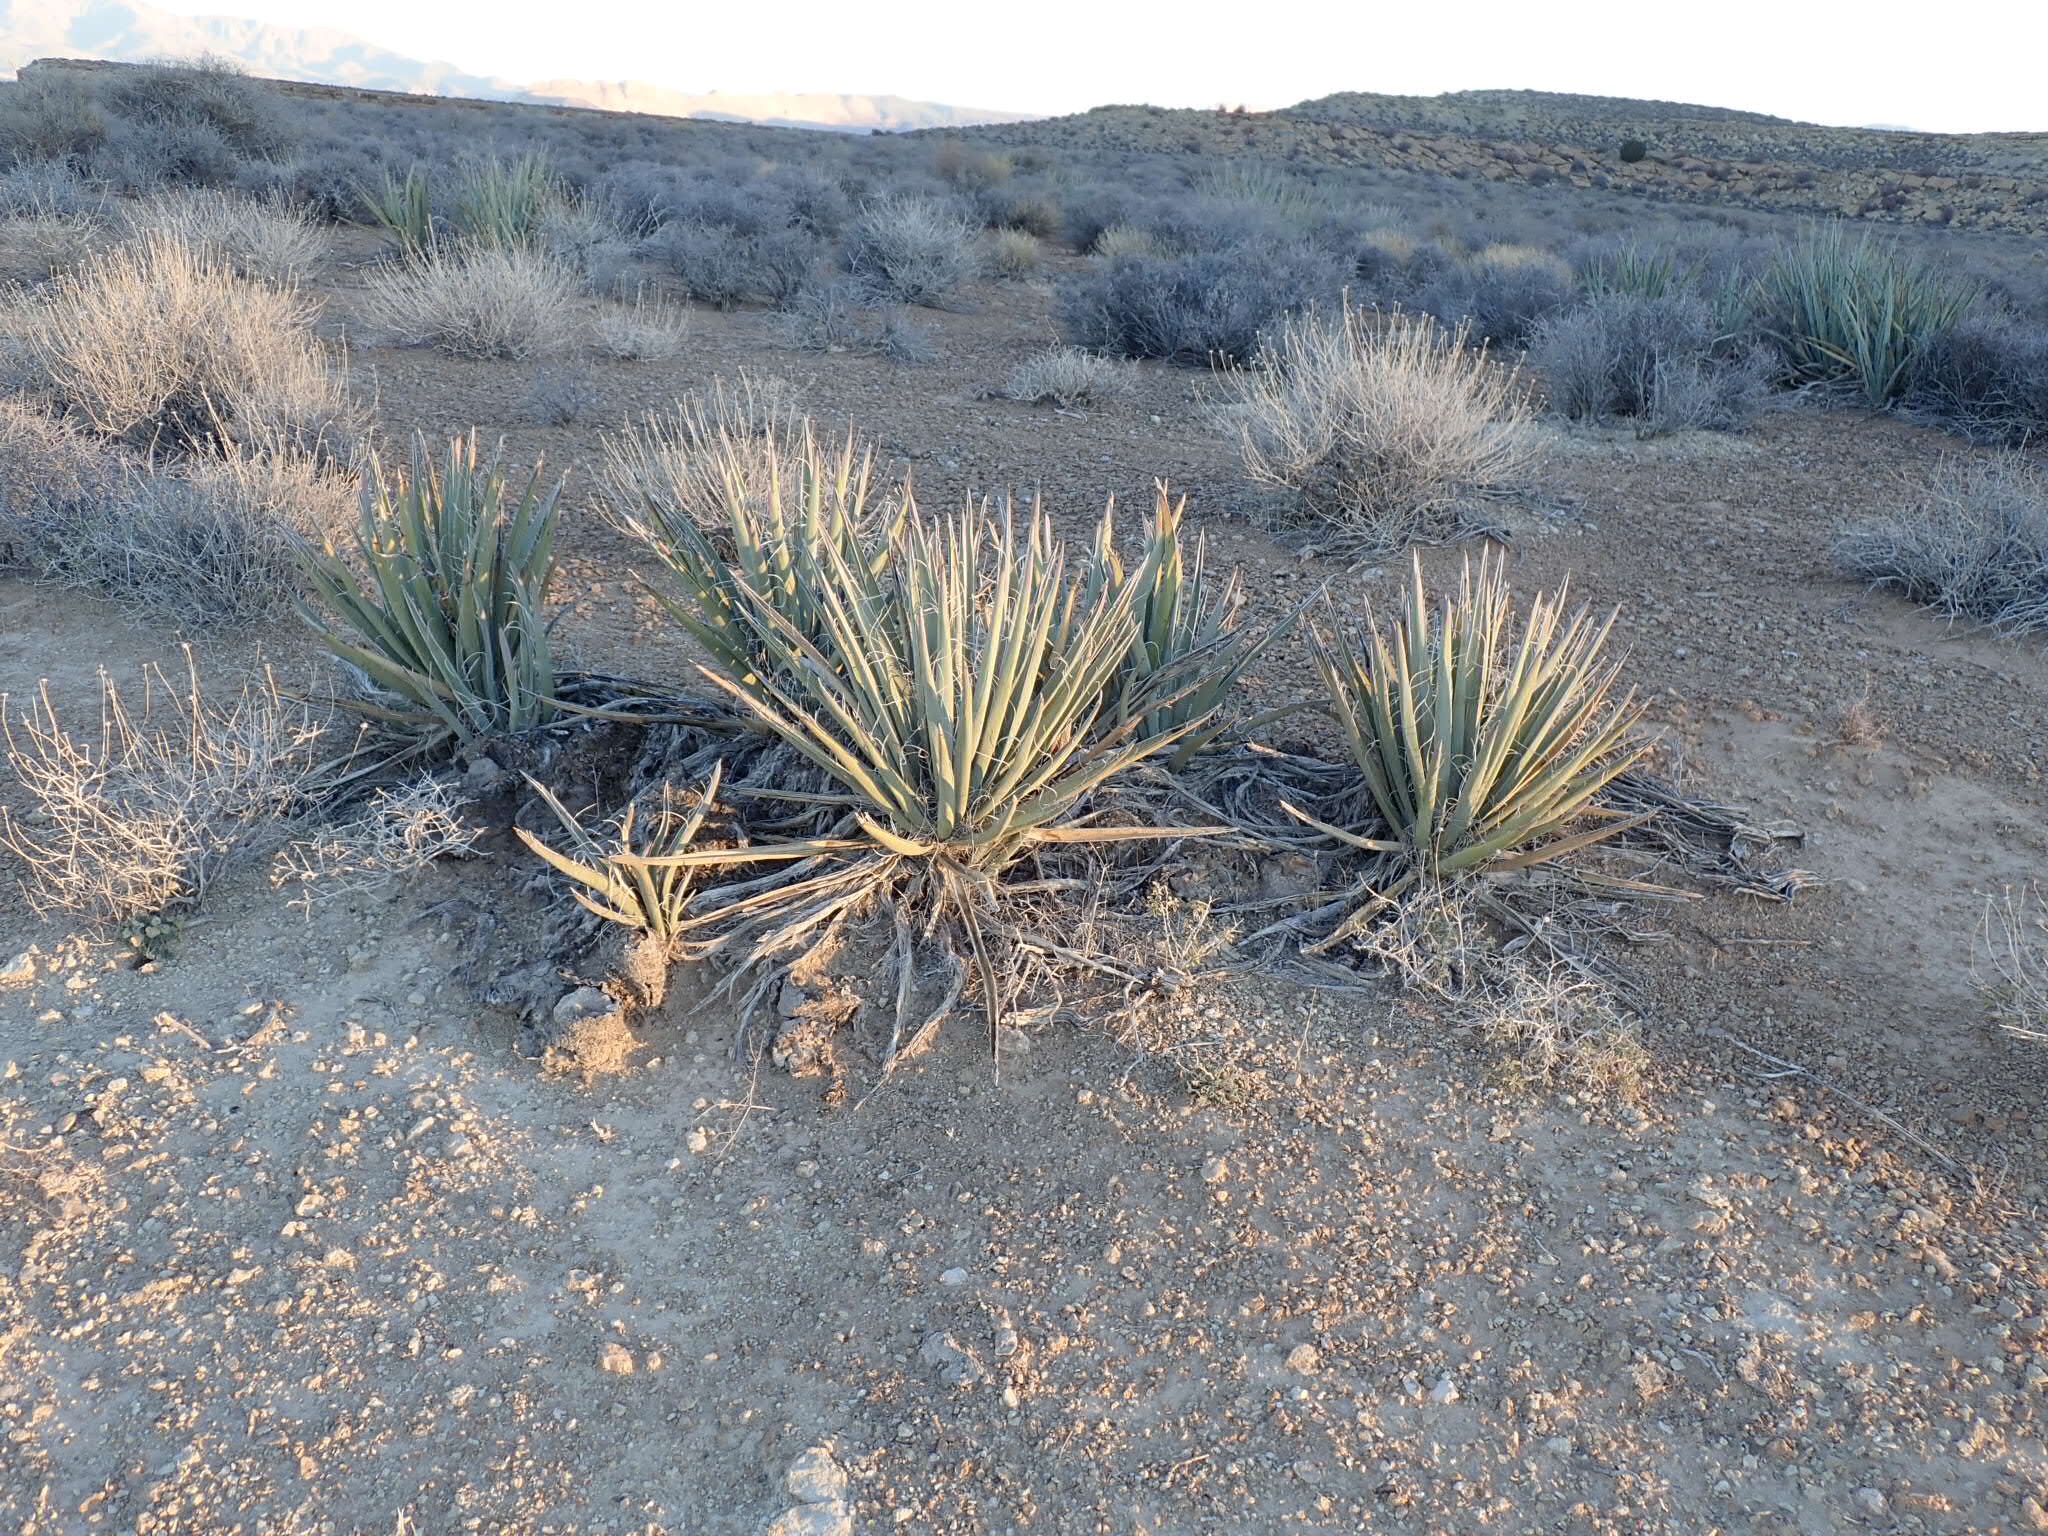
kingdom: Plantae
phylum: Tracheophyta
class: Liliopsida
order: Asparagales
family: Asparagaceae
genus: Yucca
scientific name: Yucca baccata
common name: Banana yucca
